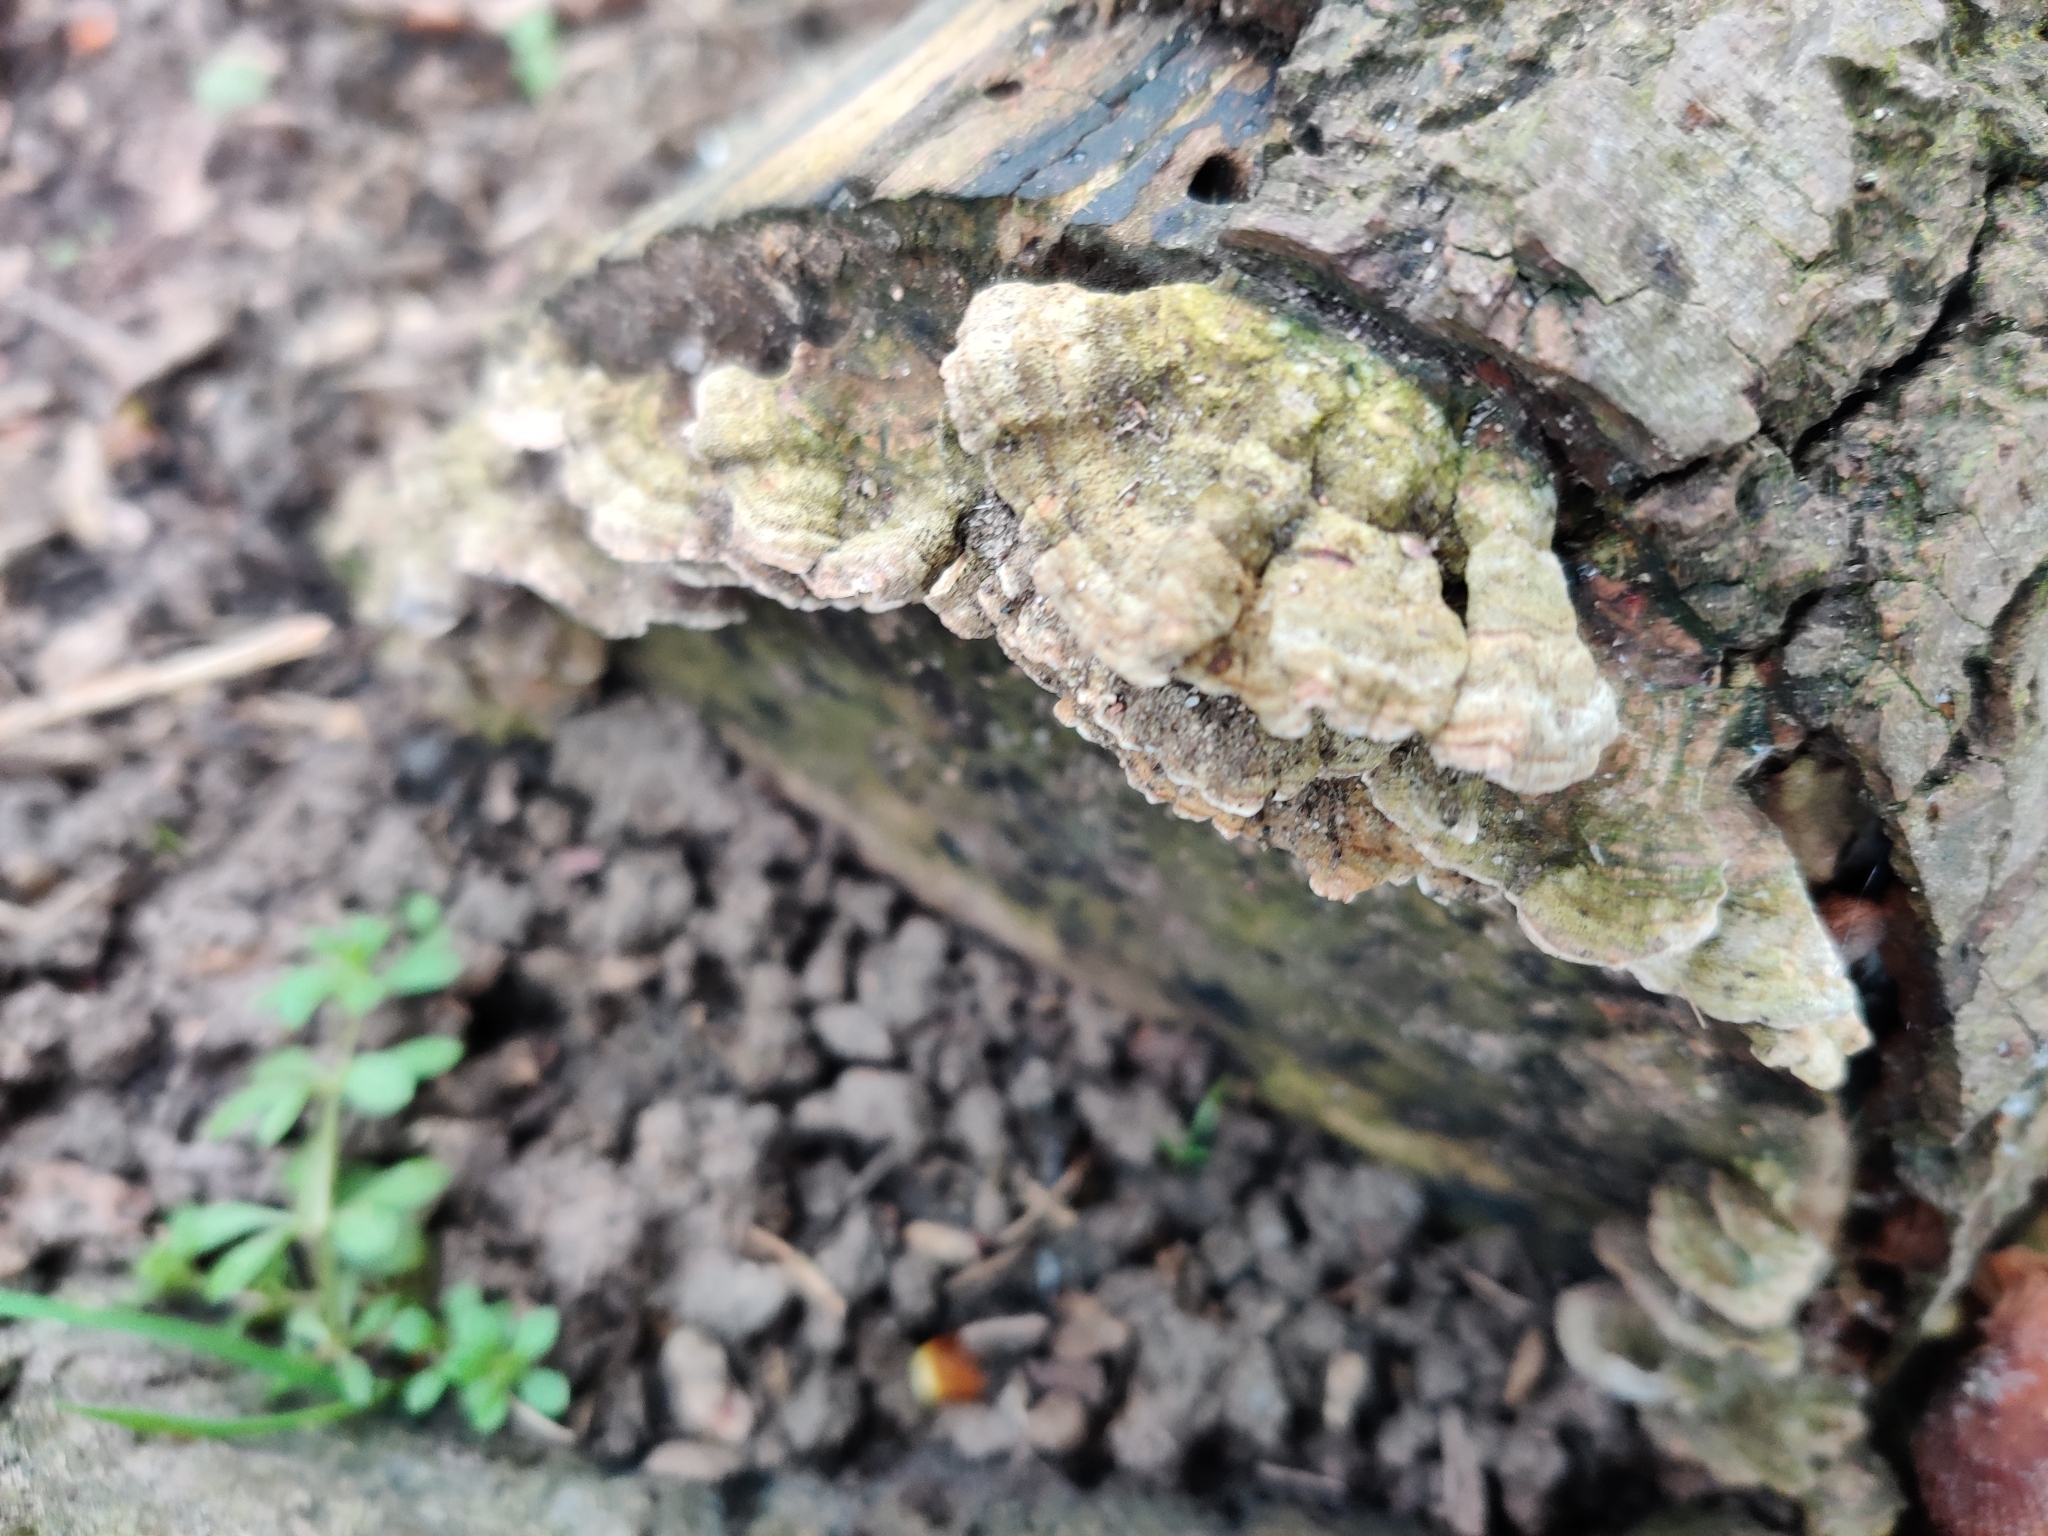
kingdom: Fungi
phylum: Basidiomycota
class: Agaricomycetes
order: Polyporales
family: Polyporaceae
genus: Trametes
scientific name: Trametes versicolor
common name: Turkeytail
